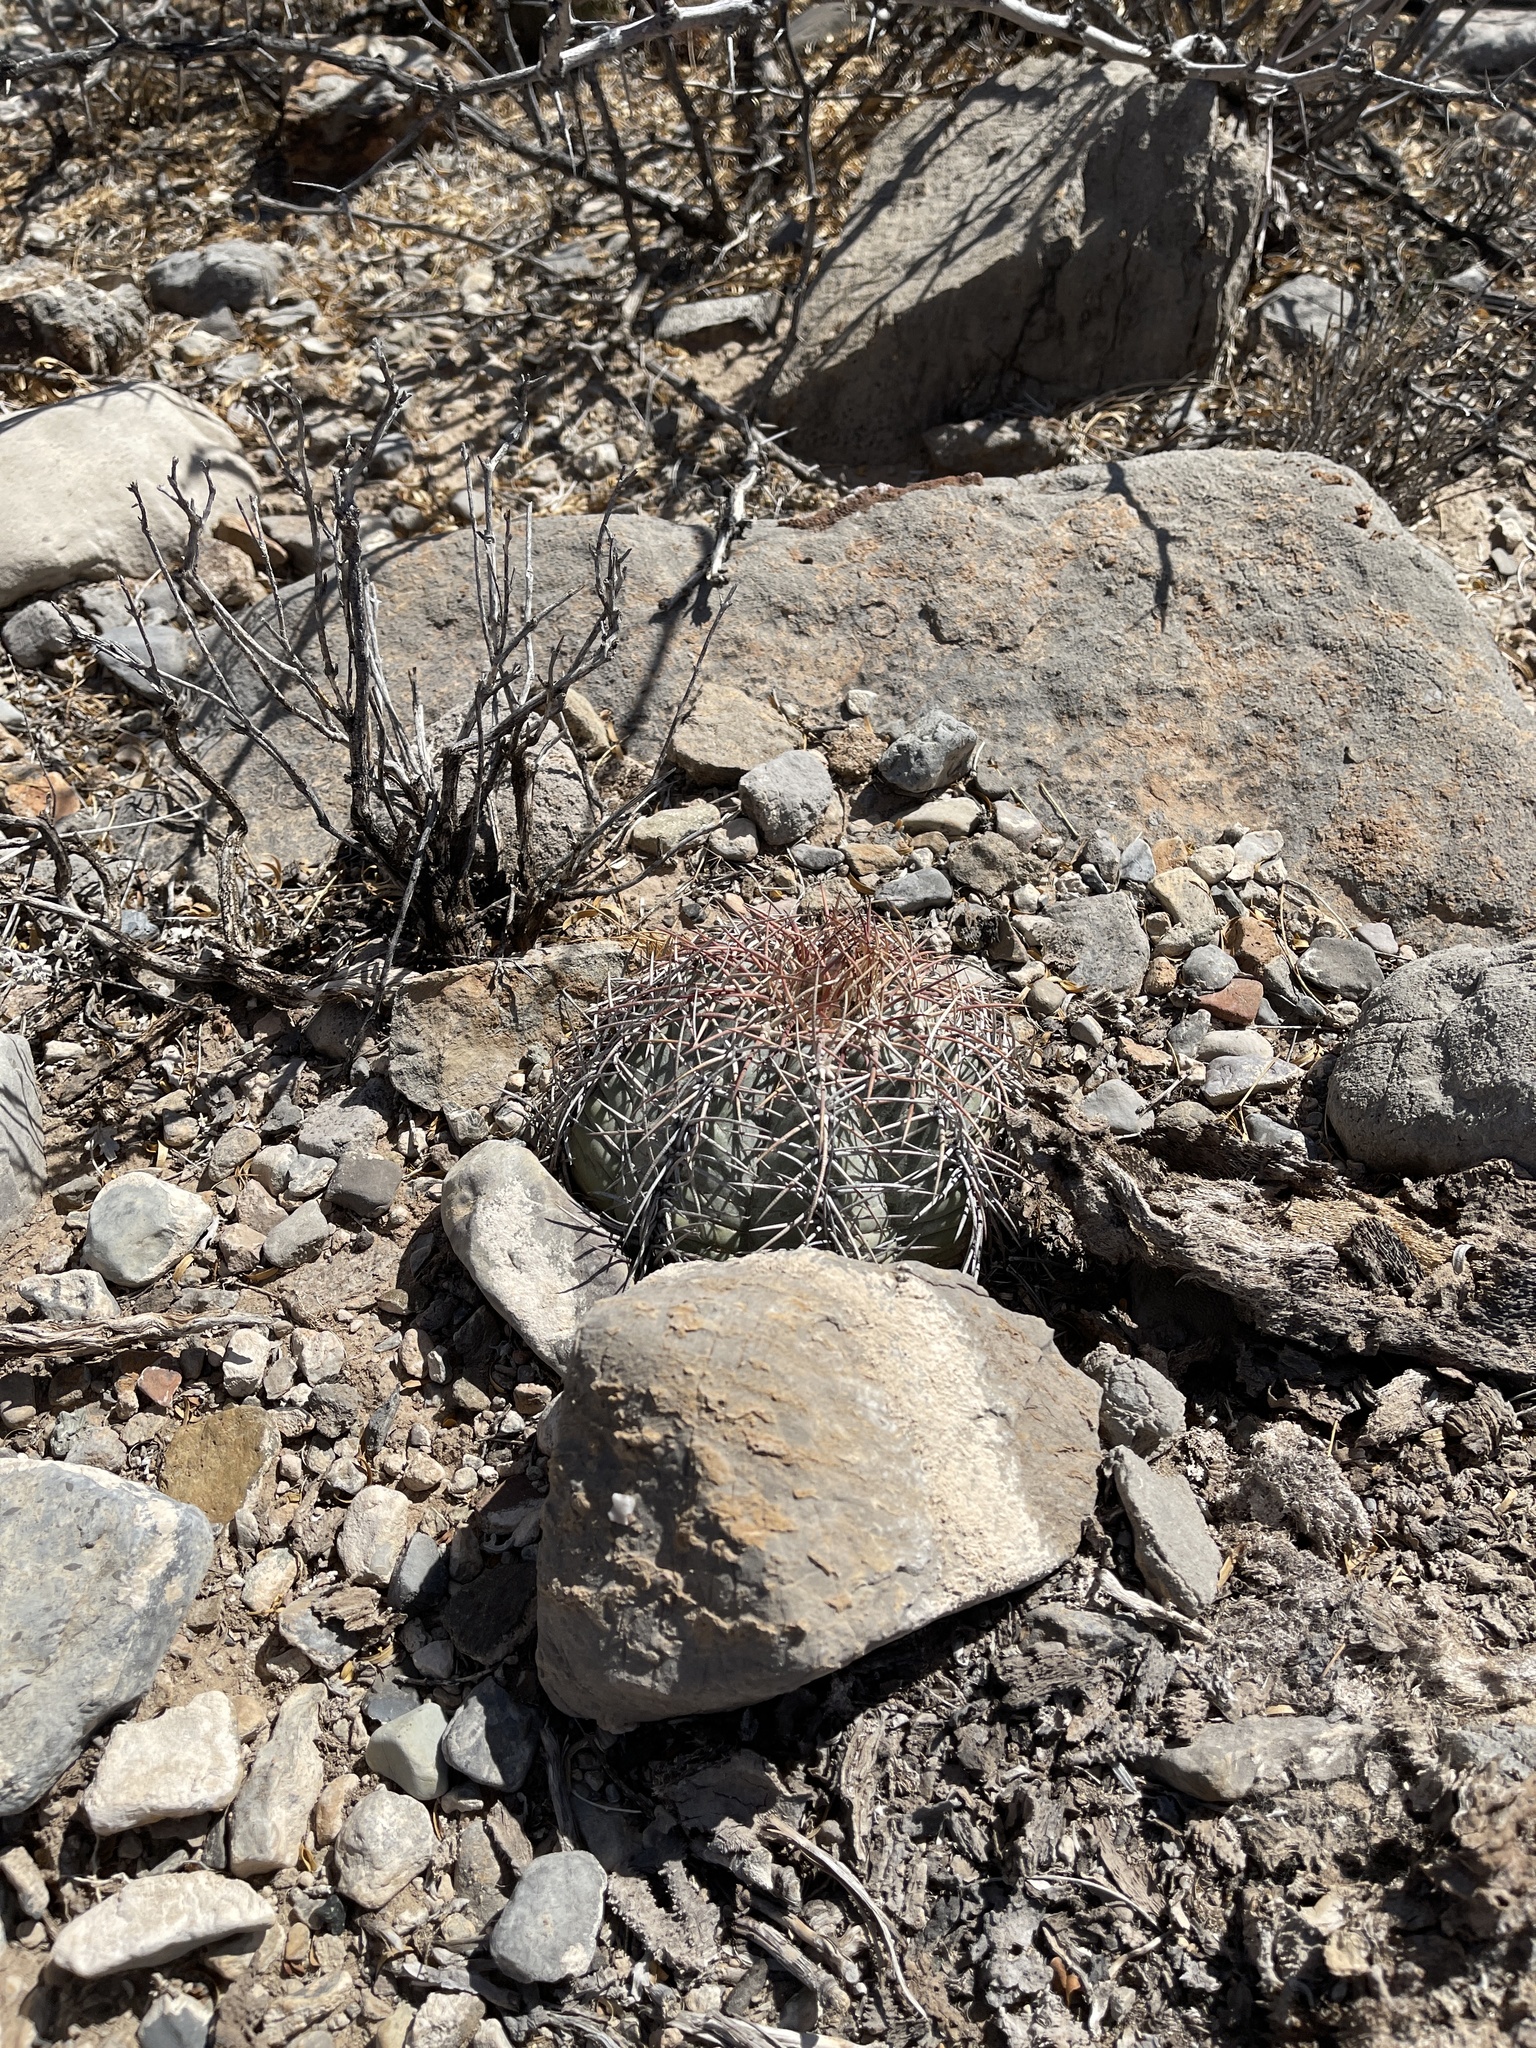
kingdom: Plantae
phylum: Tracheophyta
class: Magnoliopsida
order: Caryophyllales
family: Cactaceae
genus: Echinocactus
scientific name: Echinocactus horizonthalonius
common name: Devilshead
